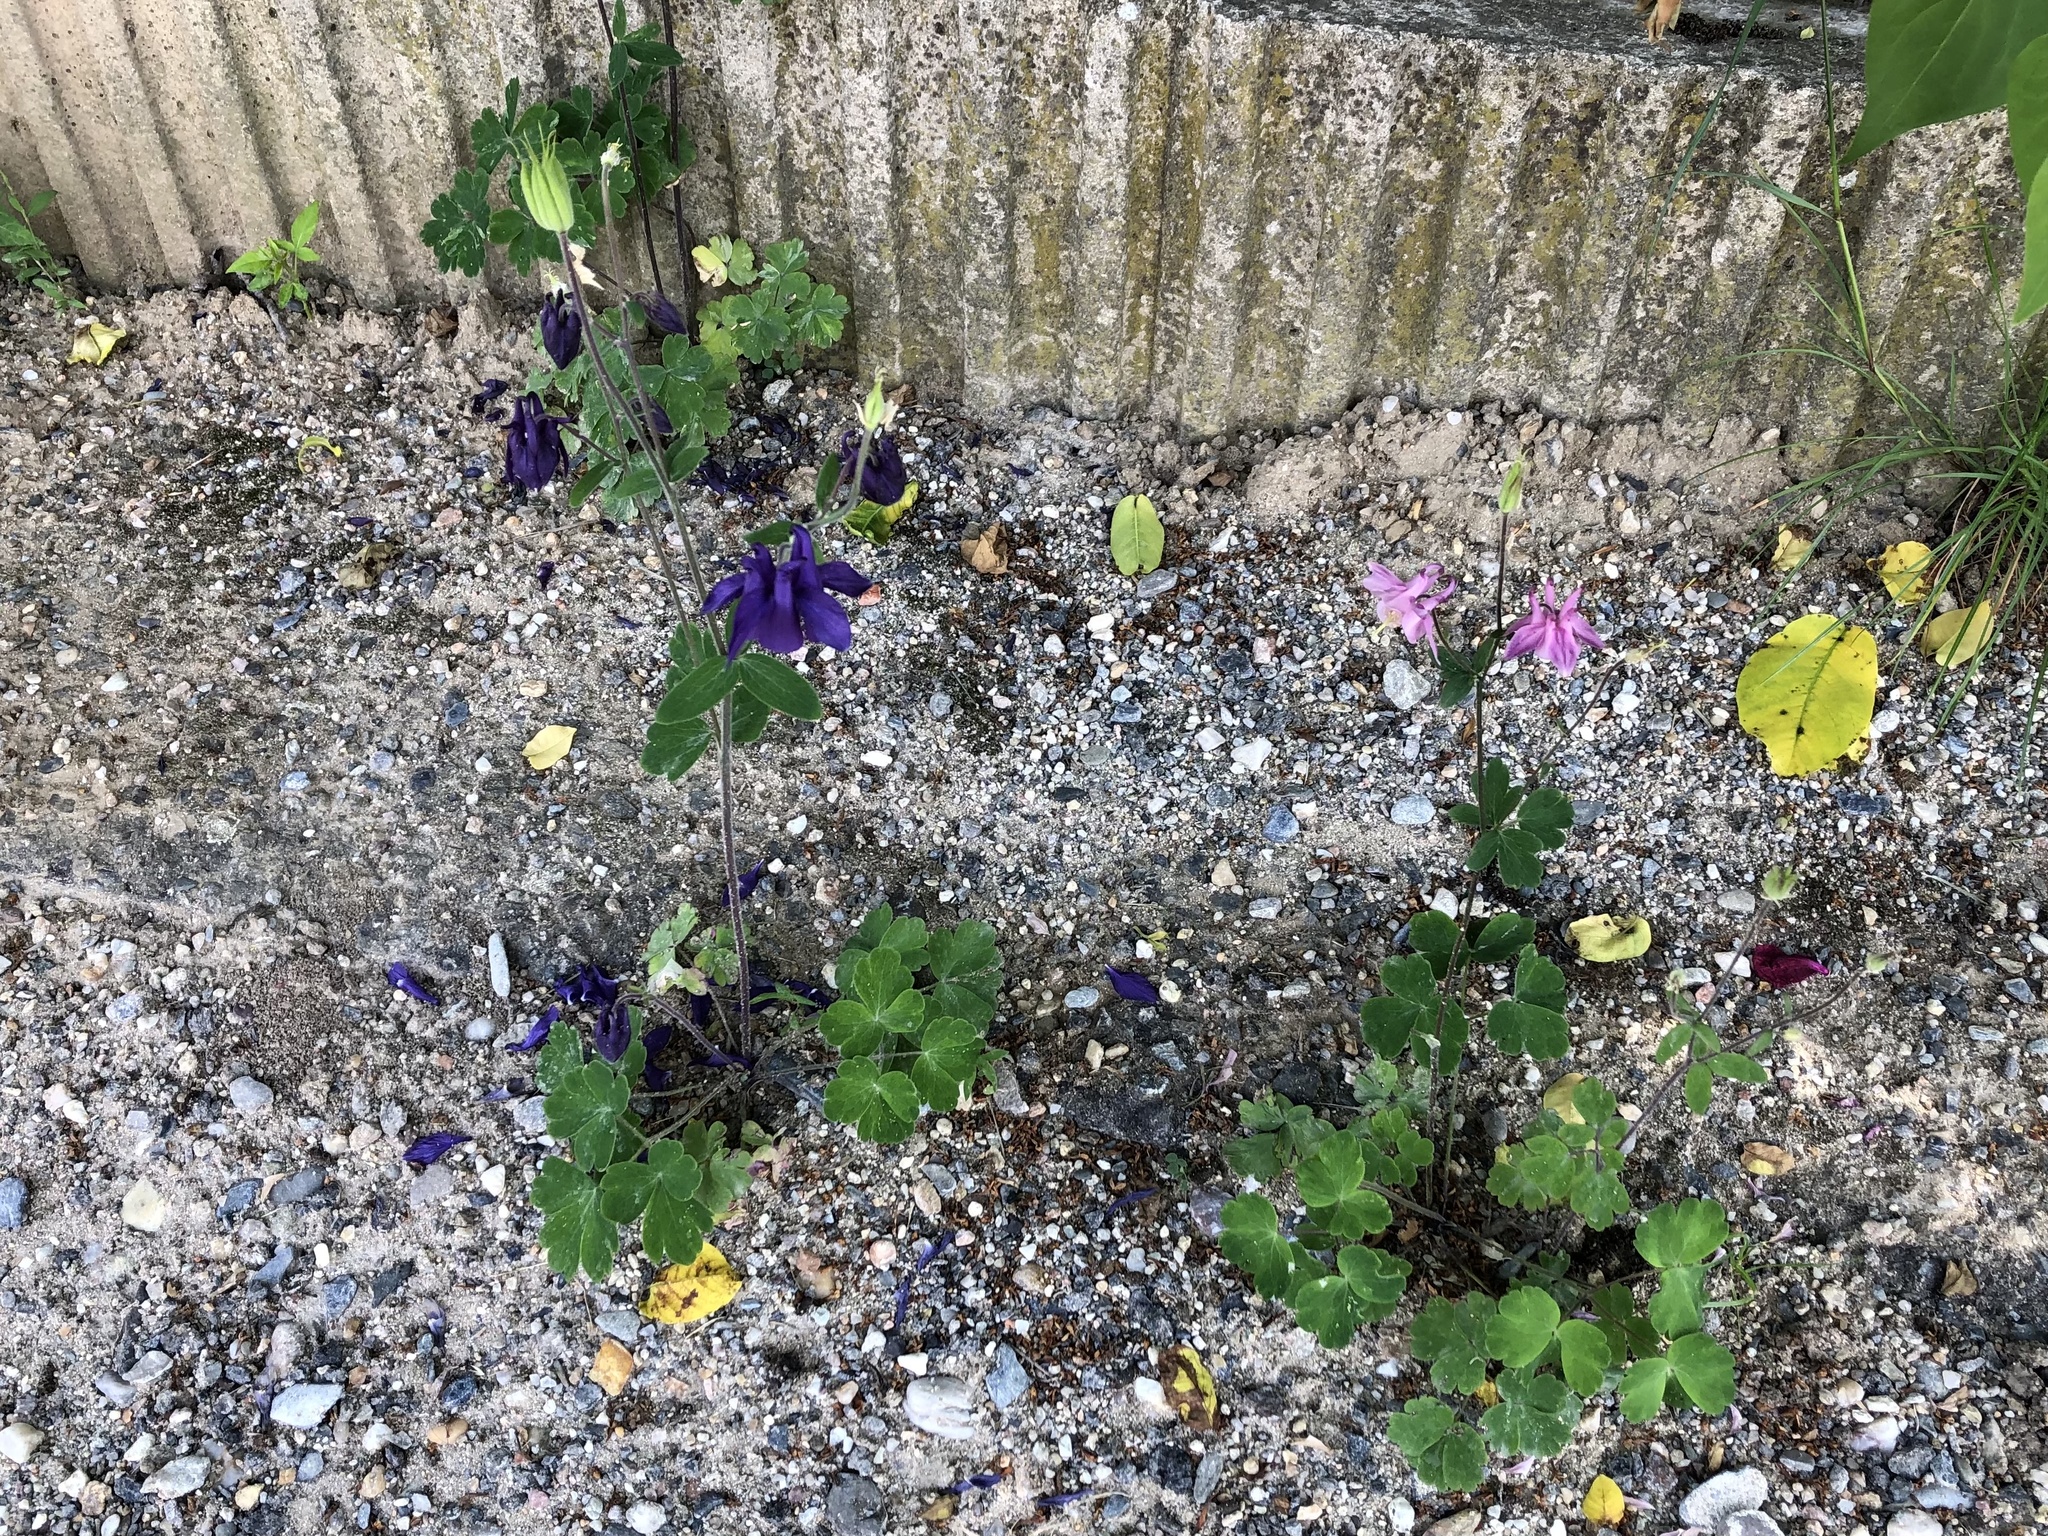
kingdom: Plantae
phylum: Tracheophyta
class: Magnoliopsida
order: Ranunculales
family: Ranunculaceae
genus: Aquilegia
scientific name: Aquilegia vulgaris
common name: Columbine
